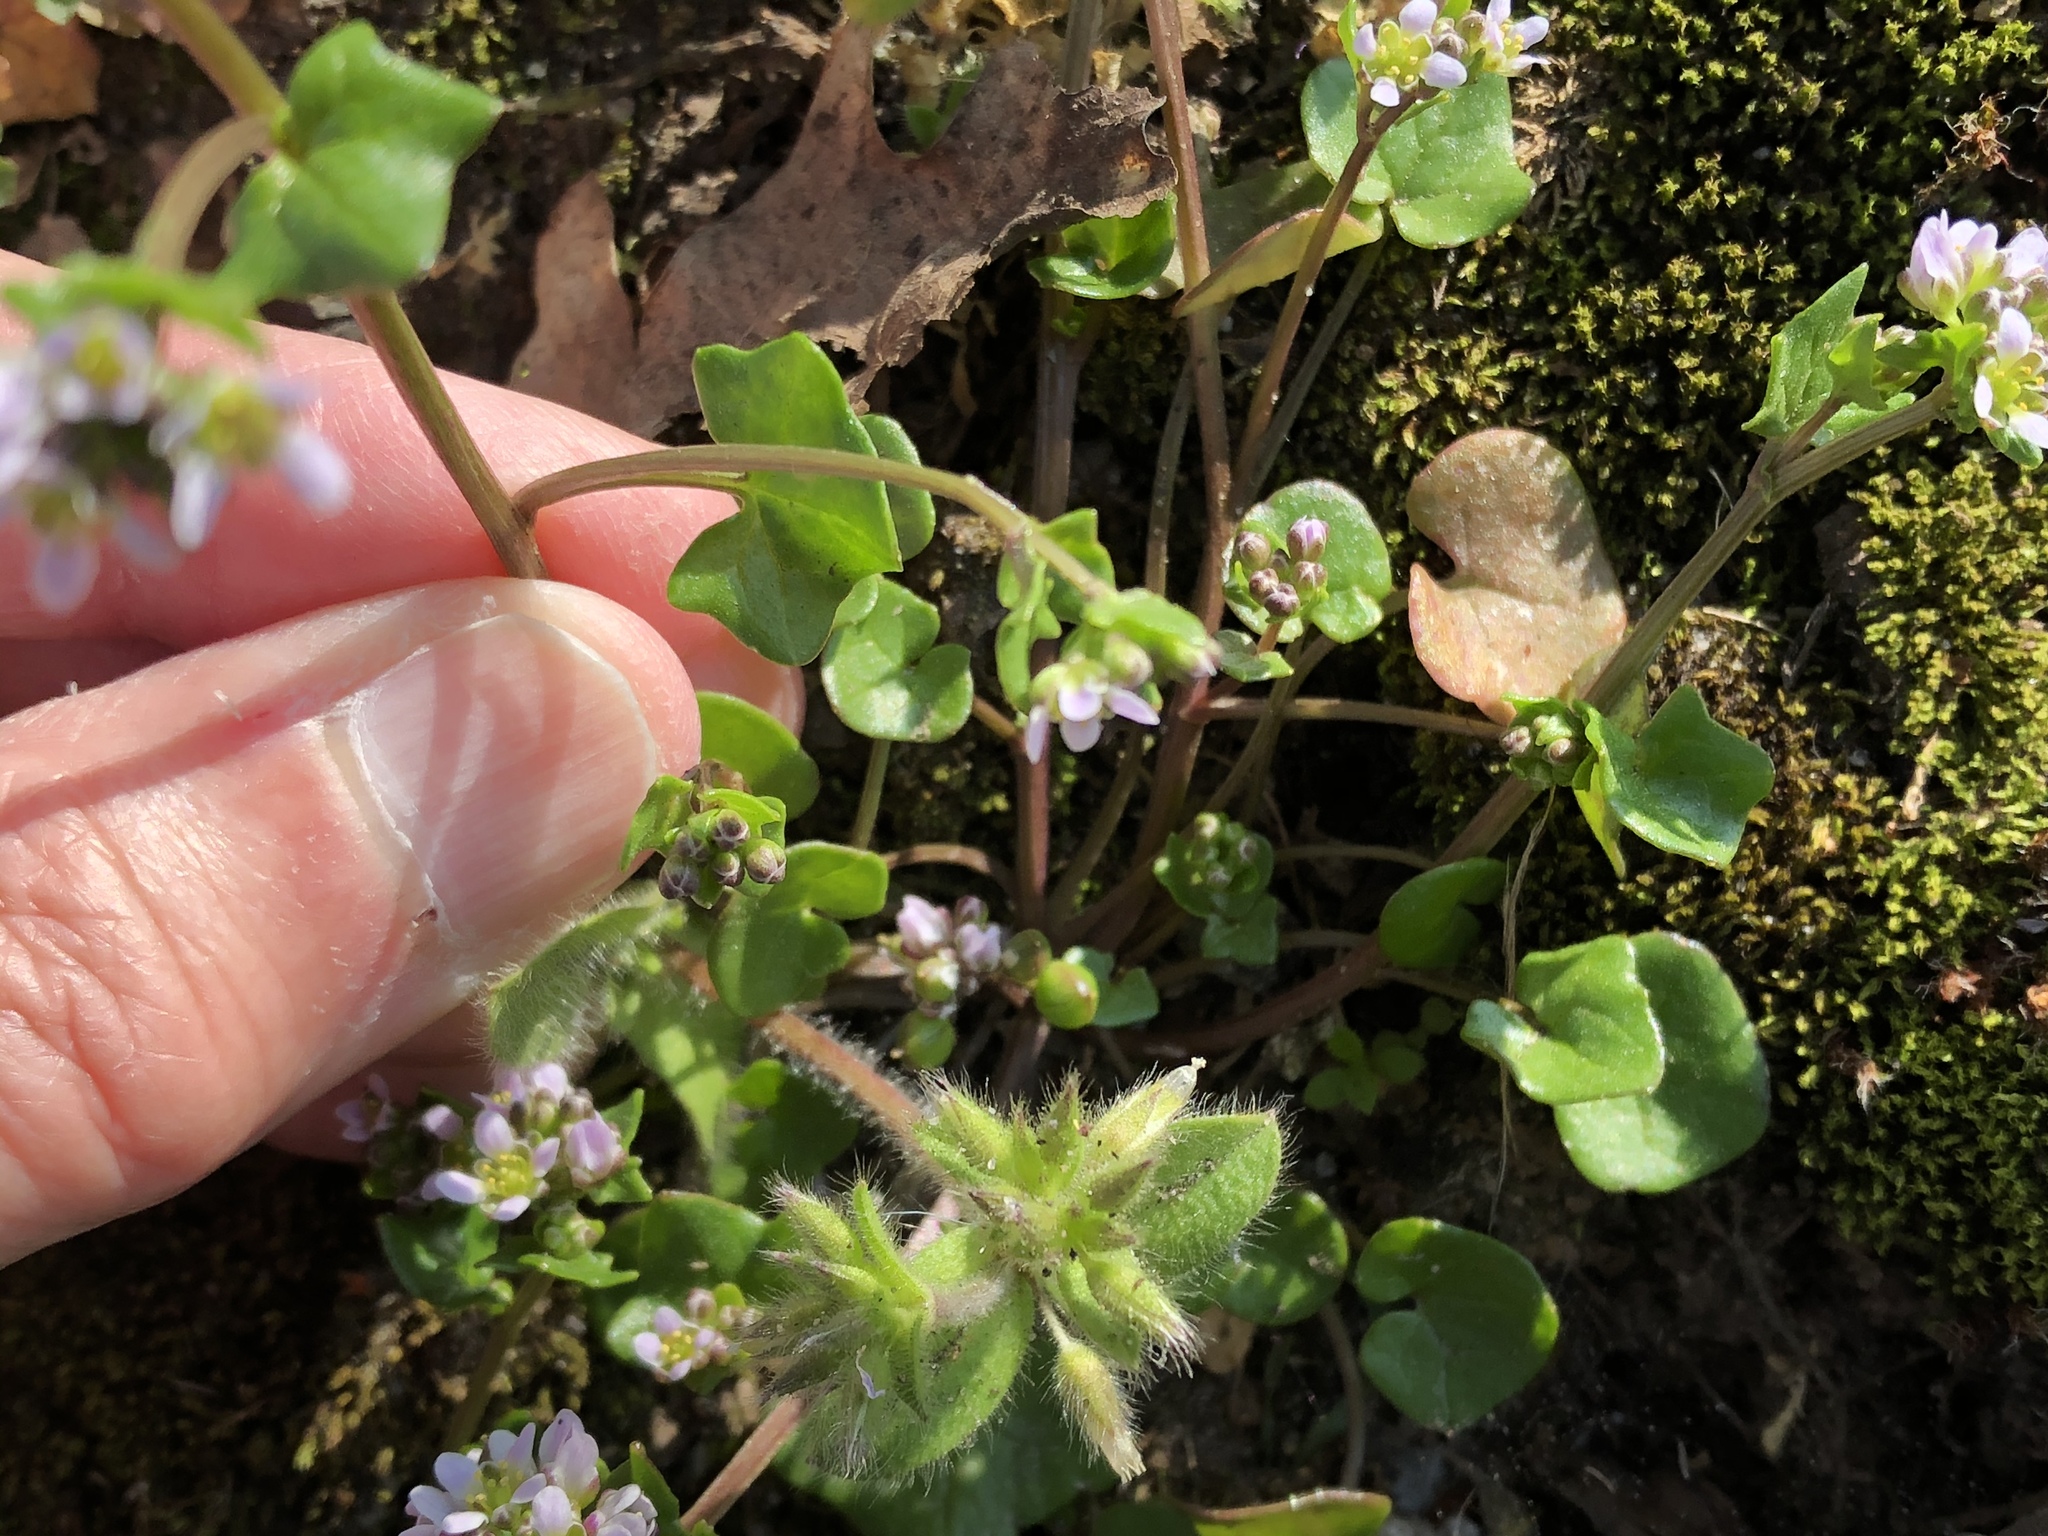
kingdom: Plantae
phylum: Tracheophyta
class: Magnoliopsida
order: Brassicales
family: Brassicaceae
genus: Cochlearia
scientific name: Cochlearia danica
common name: Early scurvygrass
